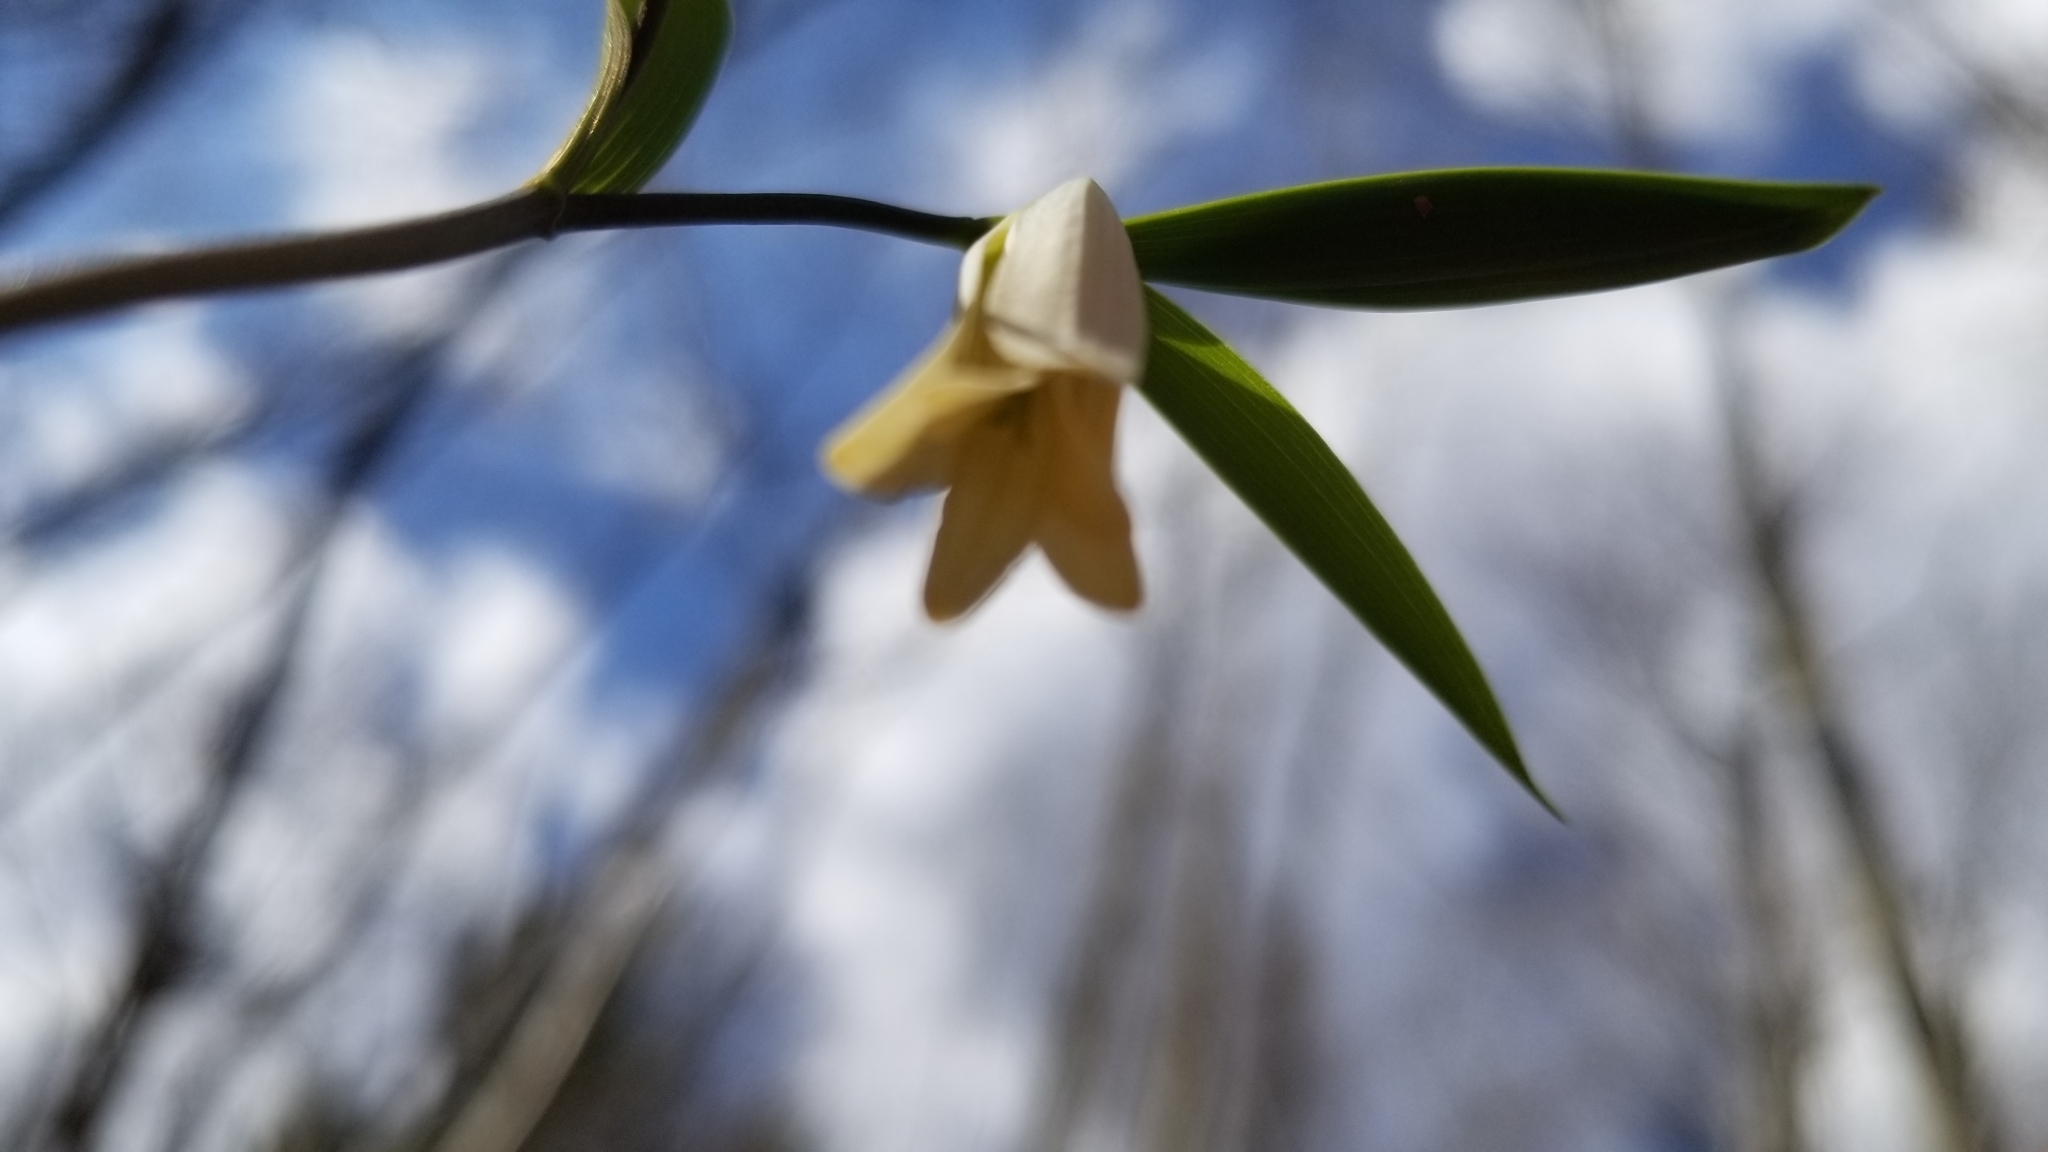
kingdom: Plantae
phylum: Tracheophyta
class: Liliopsida
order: Liliales
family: Colchicaceae
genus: Uvularia
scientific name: Uvularia sessilifolia
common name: Straw-lily
